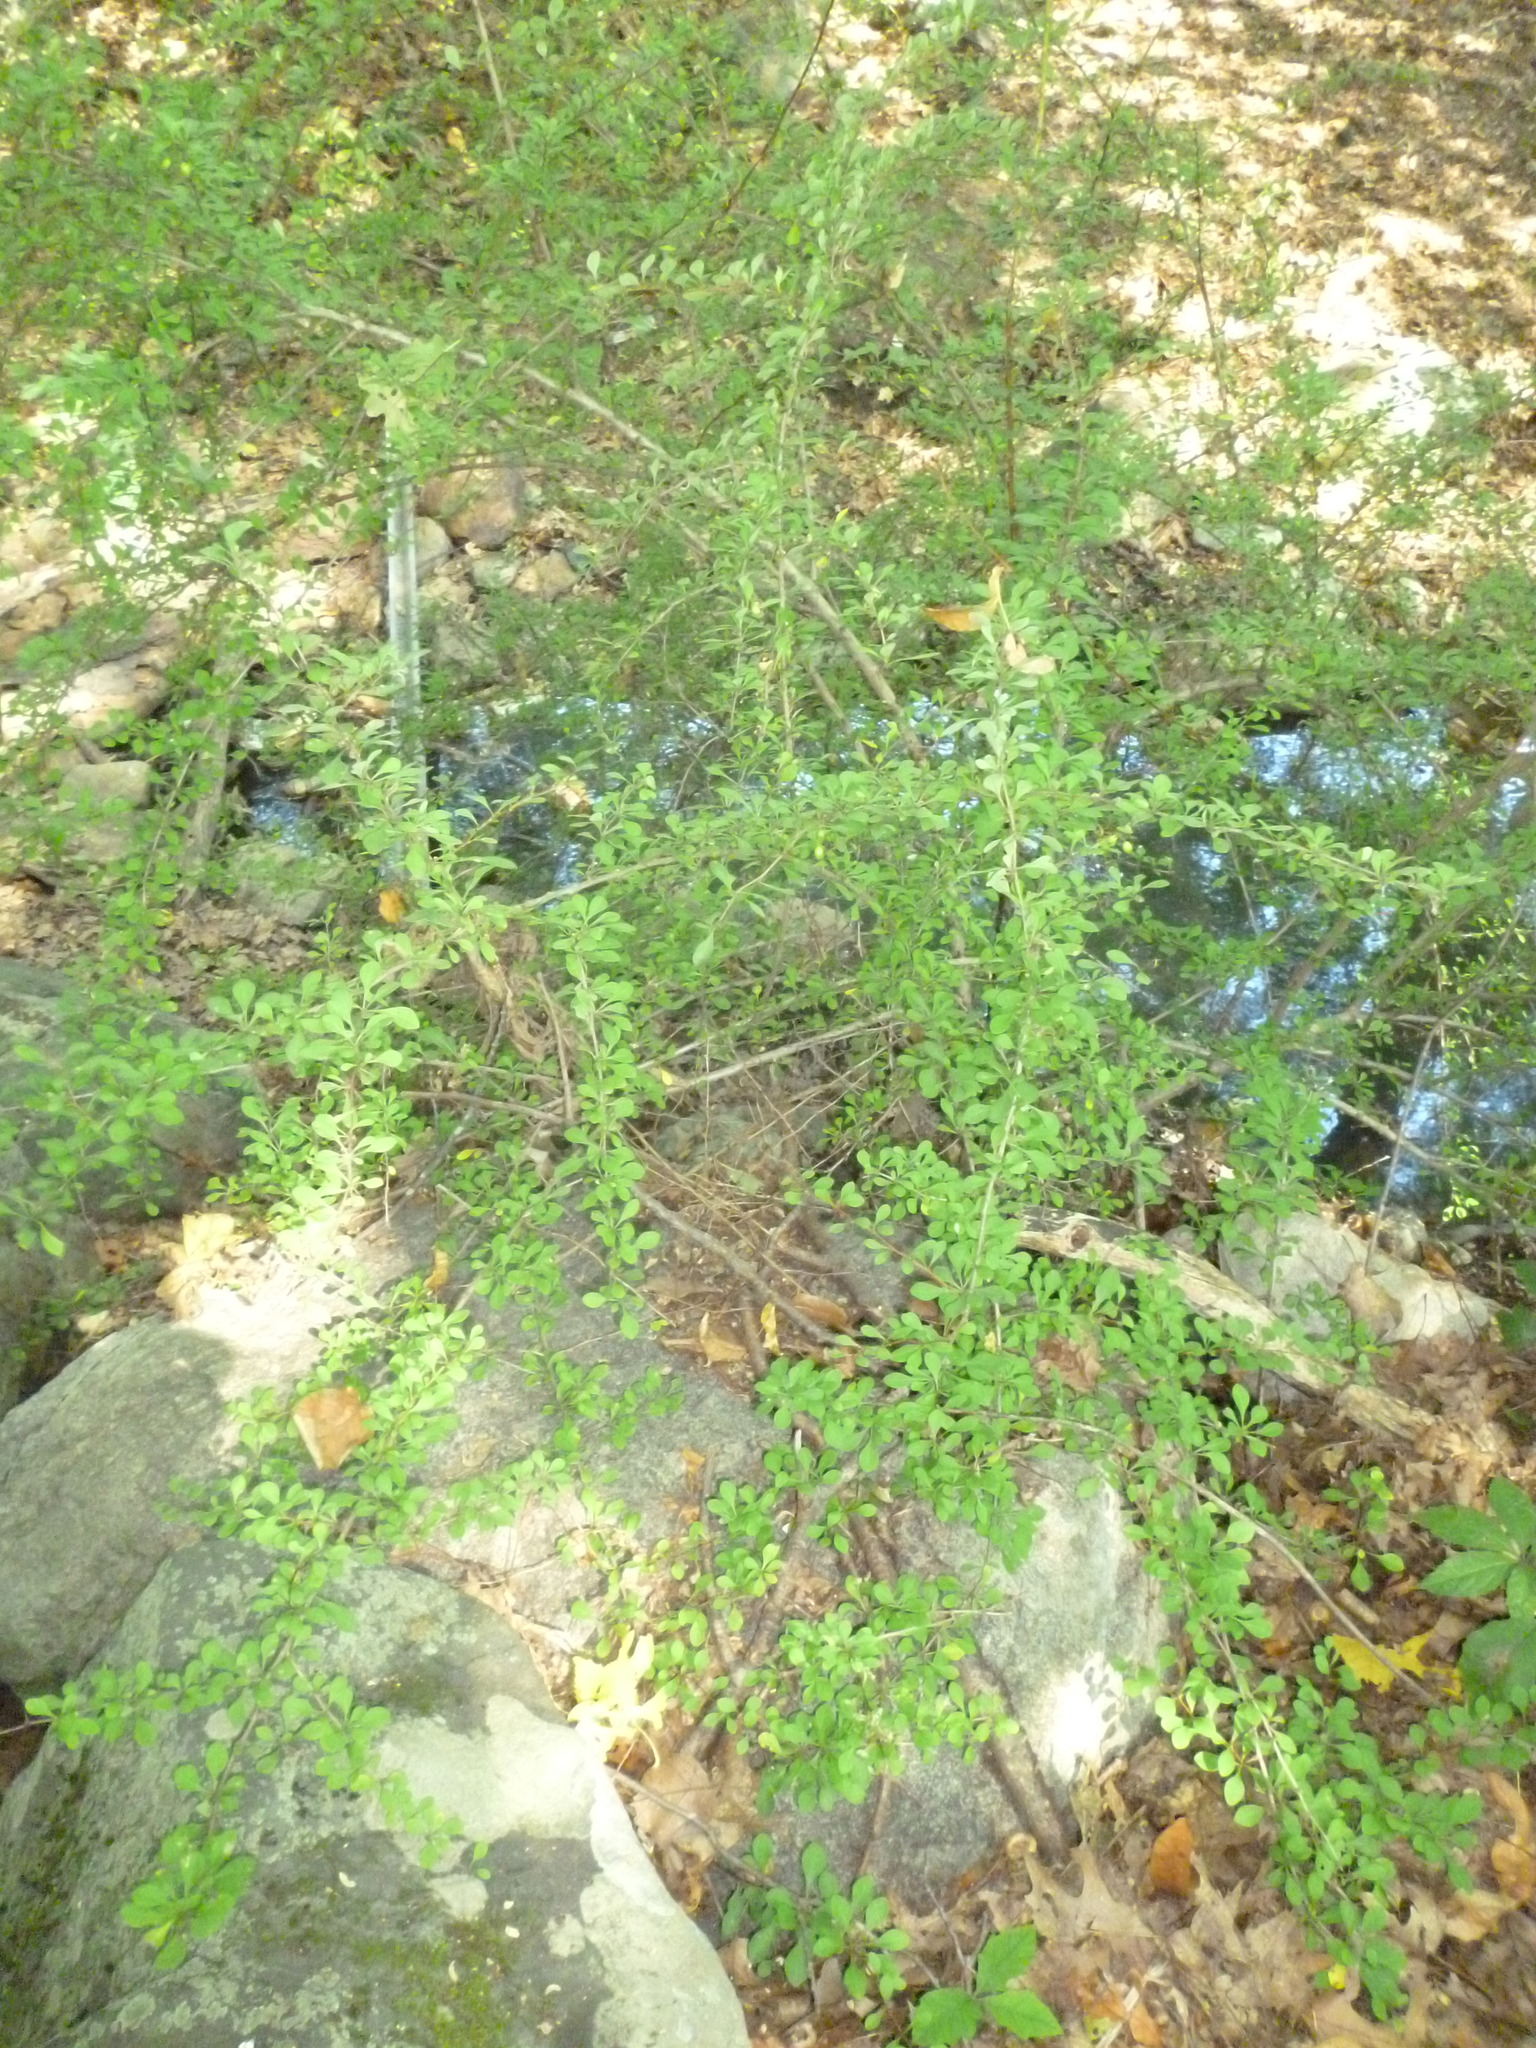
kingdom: Plantae
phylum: Tracheophyta
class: Magnoliopsida
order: Ranunculales
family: Berberidaceae
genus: Berberis
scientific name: Berberis thunbergii
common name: Japanese barberry
